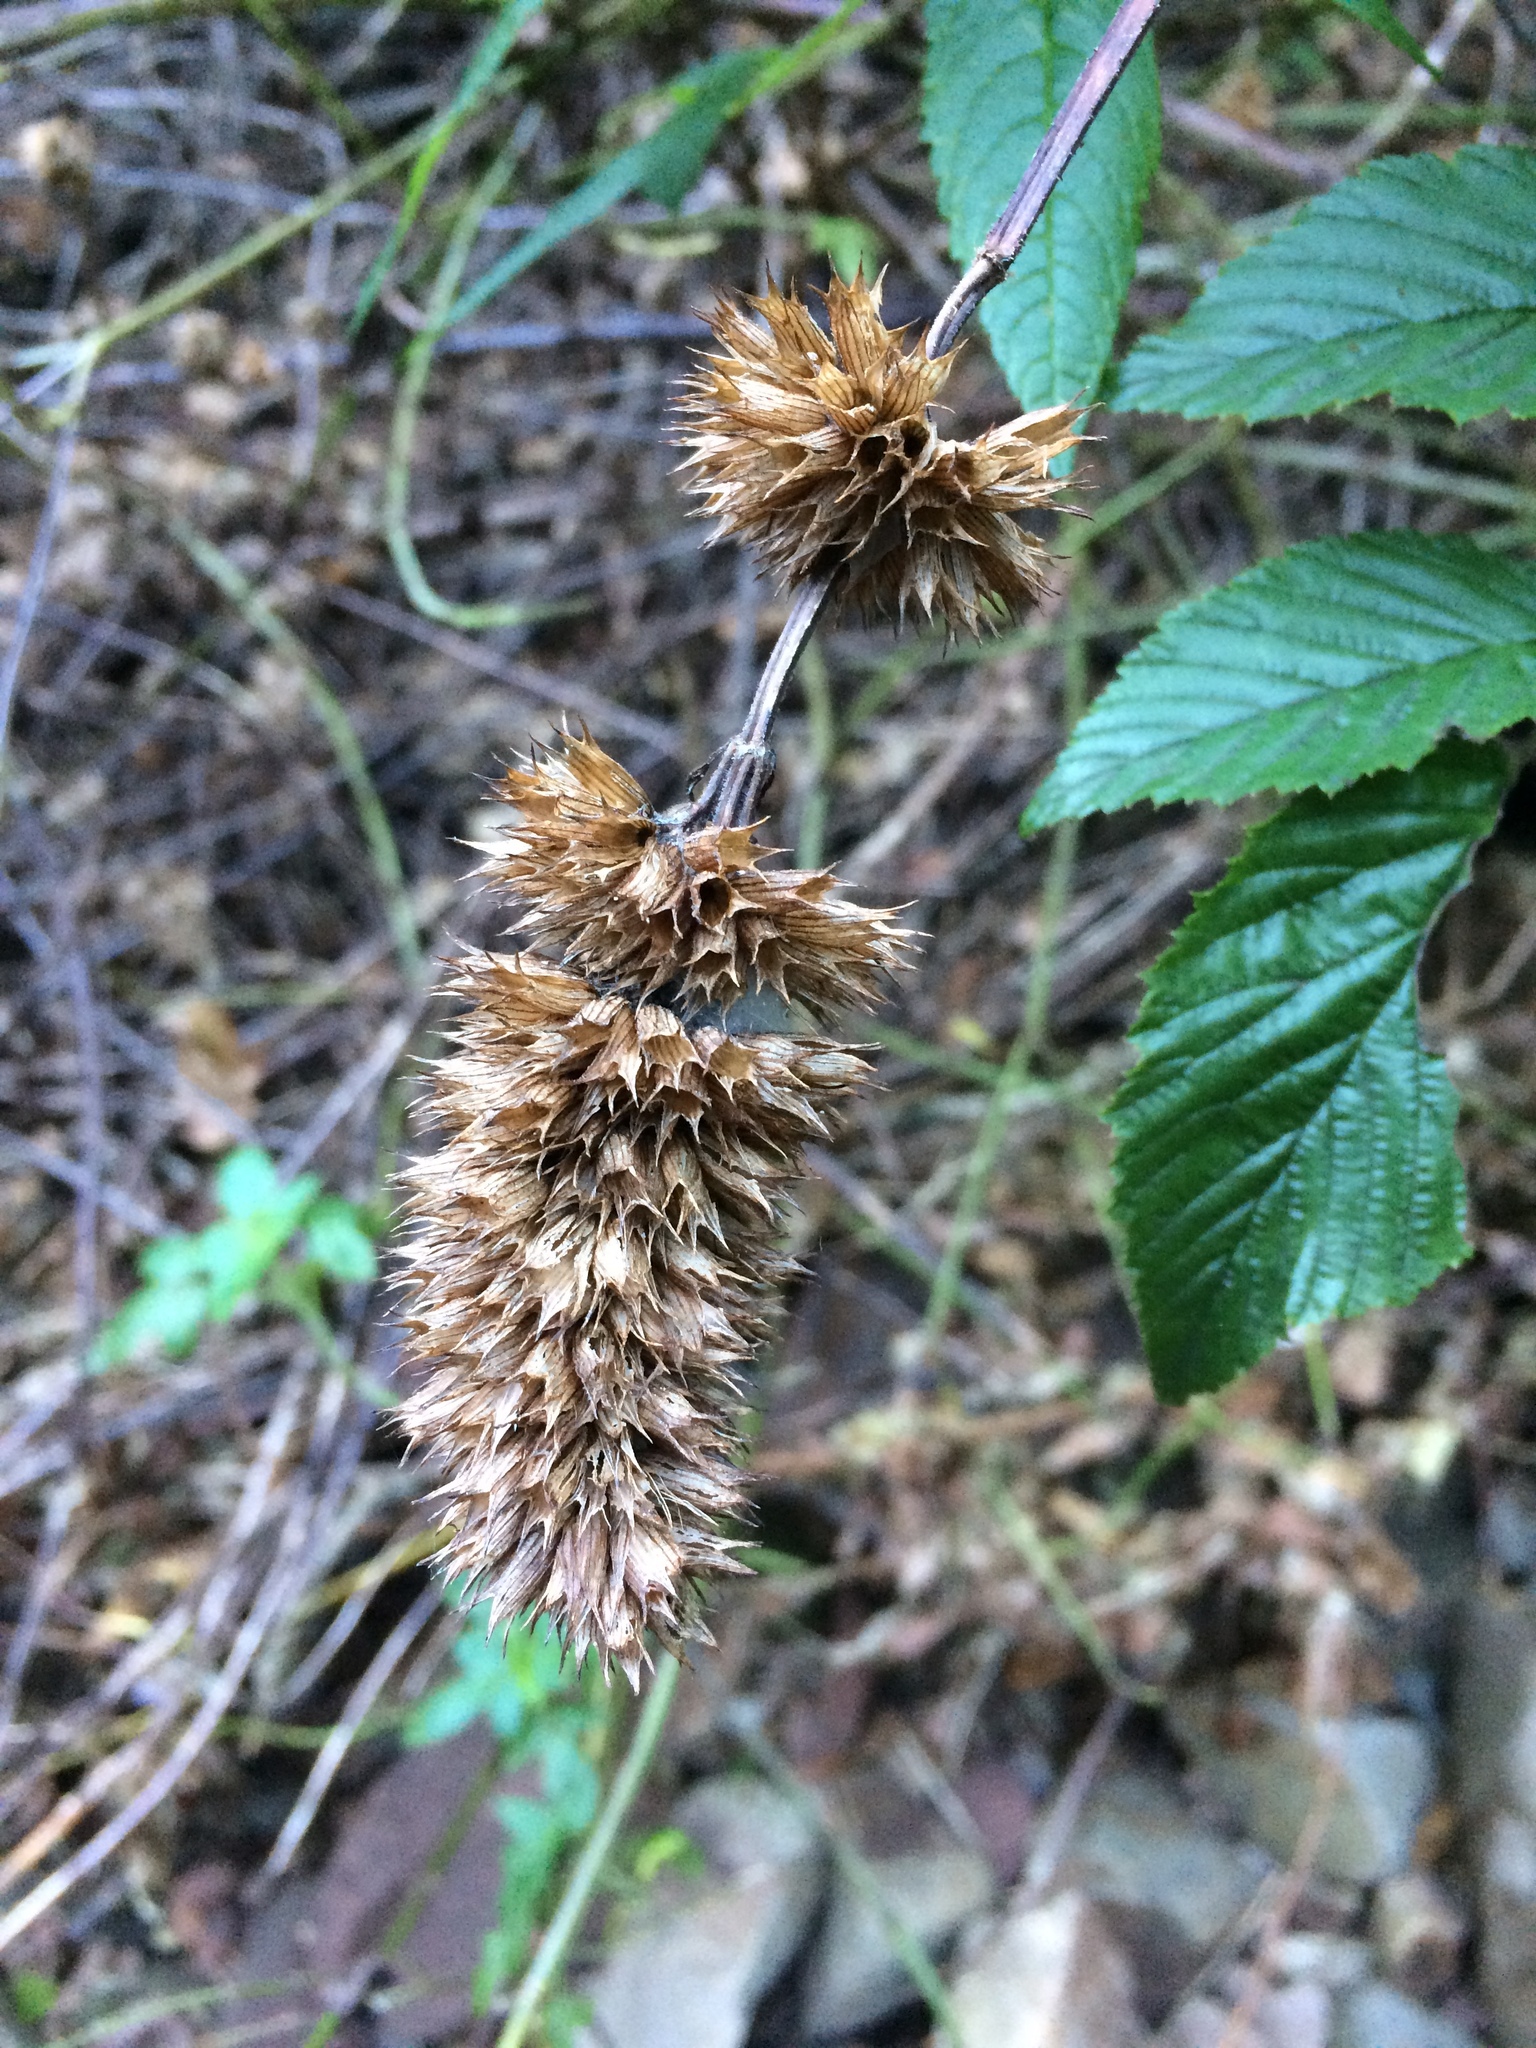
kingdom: Plantae
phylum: Tracheophyta
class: Magnoliopsida
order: Lamiales
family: Lamiaceae
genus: Cedronella
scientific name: Cedronella canariensis
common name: Canary islands balm
